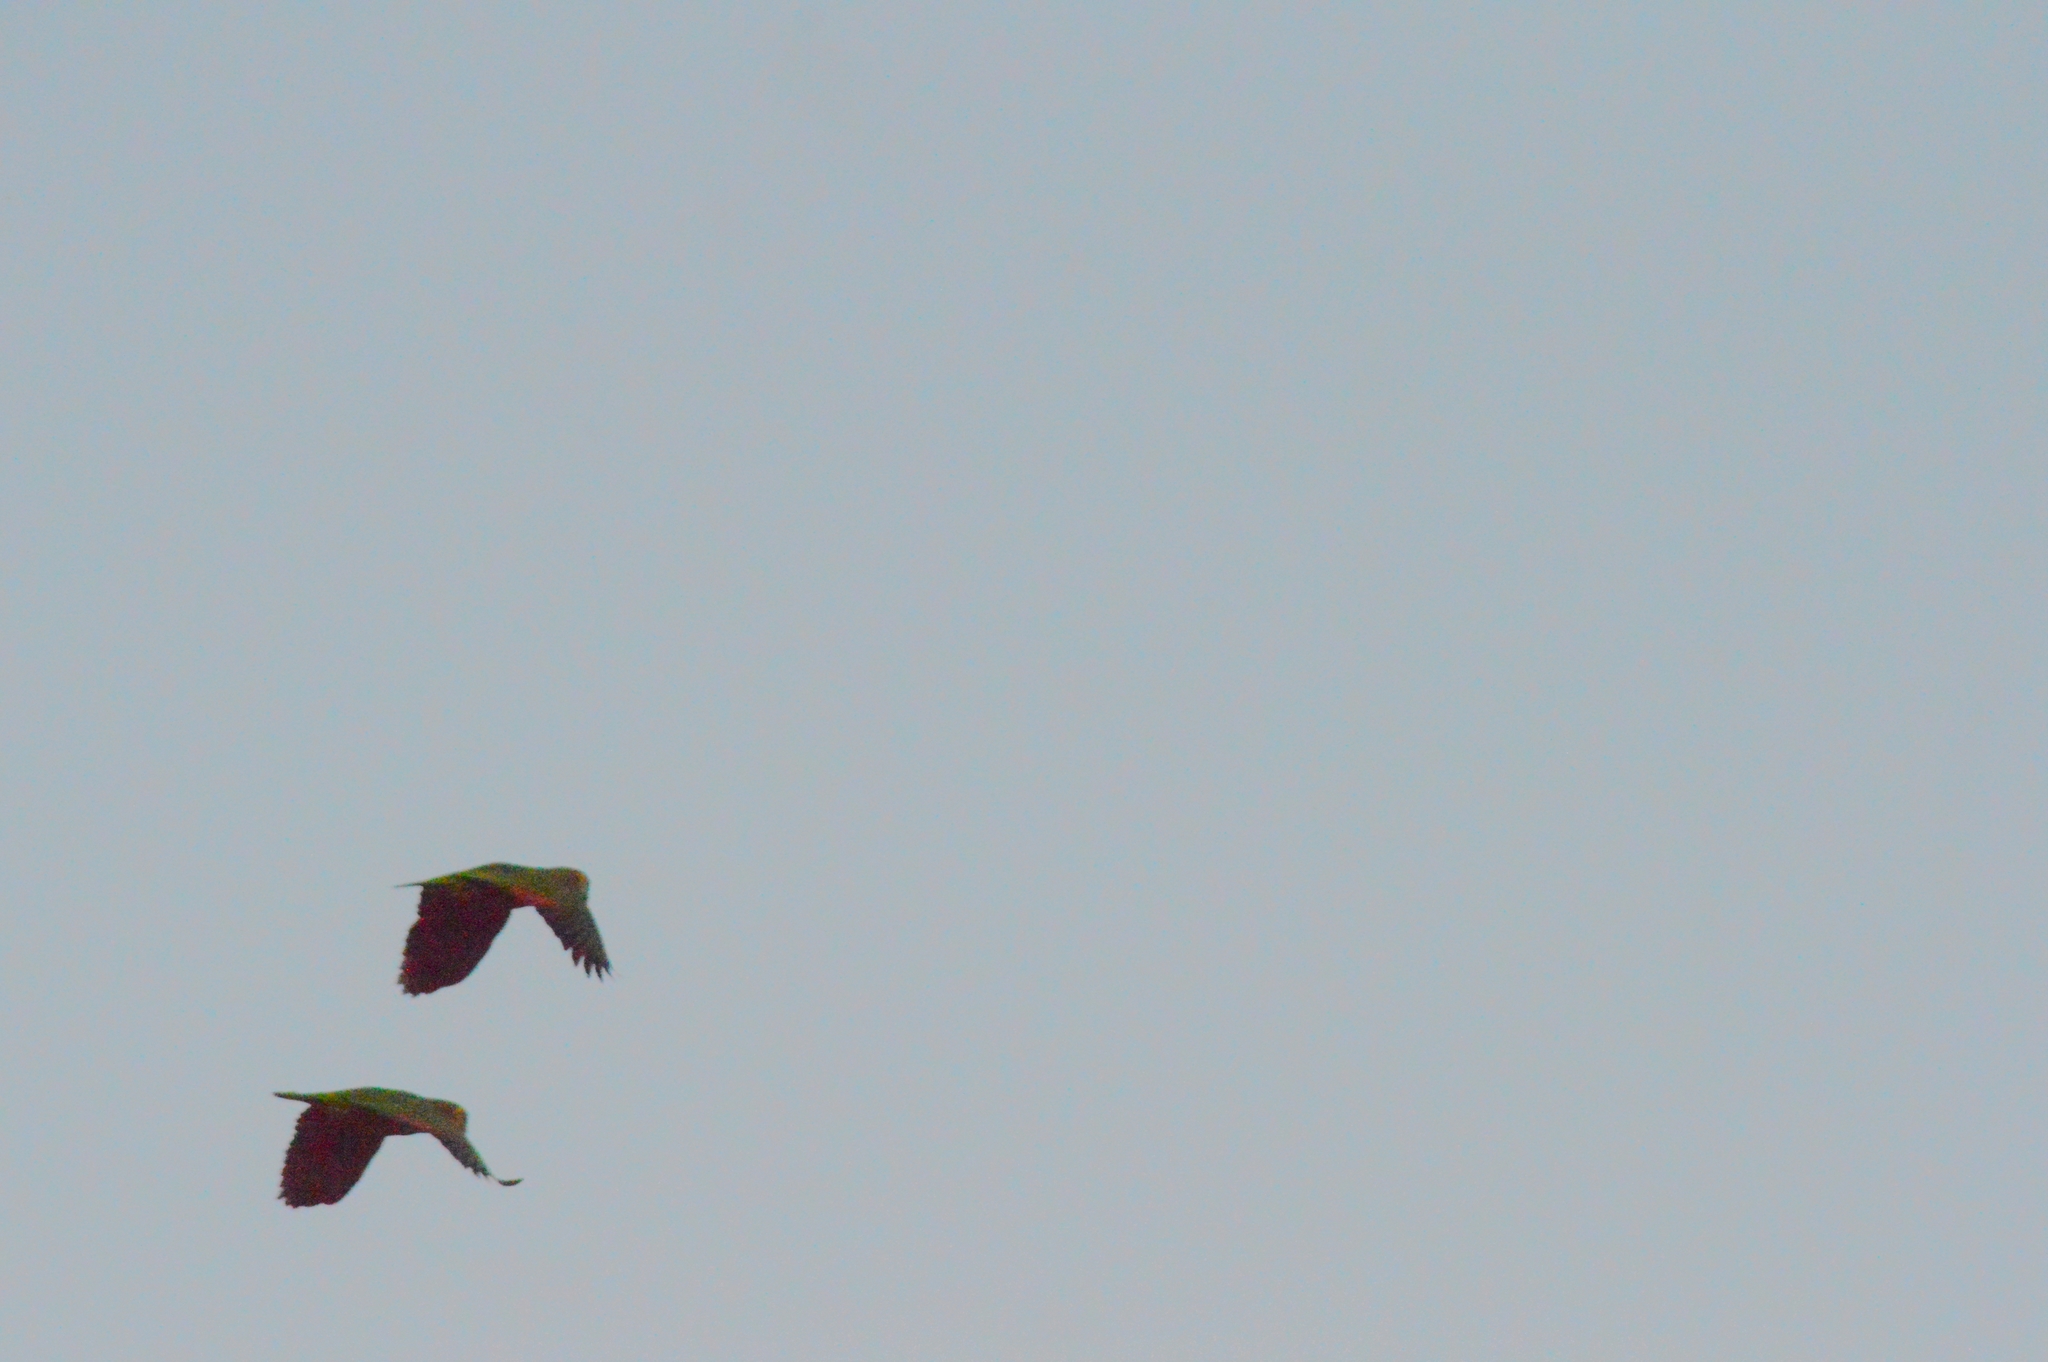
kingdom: Animalia
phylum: Chordata
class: Aves
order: Psittaciformes
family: Psittacidae
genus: Amazona
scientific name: Amazona aestiva
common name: Turquoise-fronted amazon
